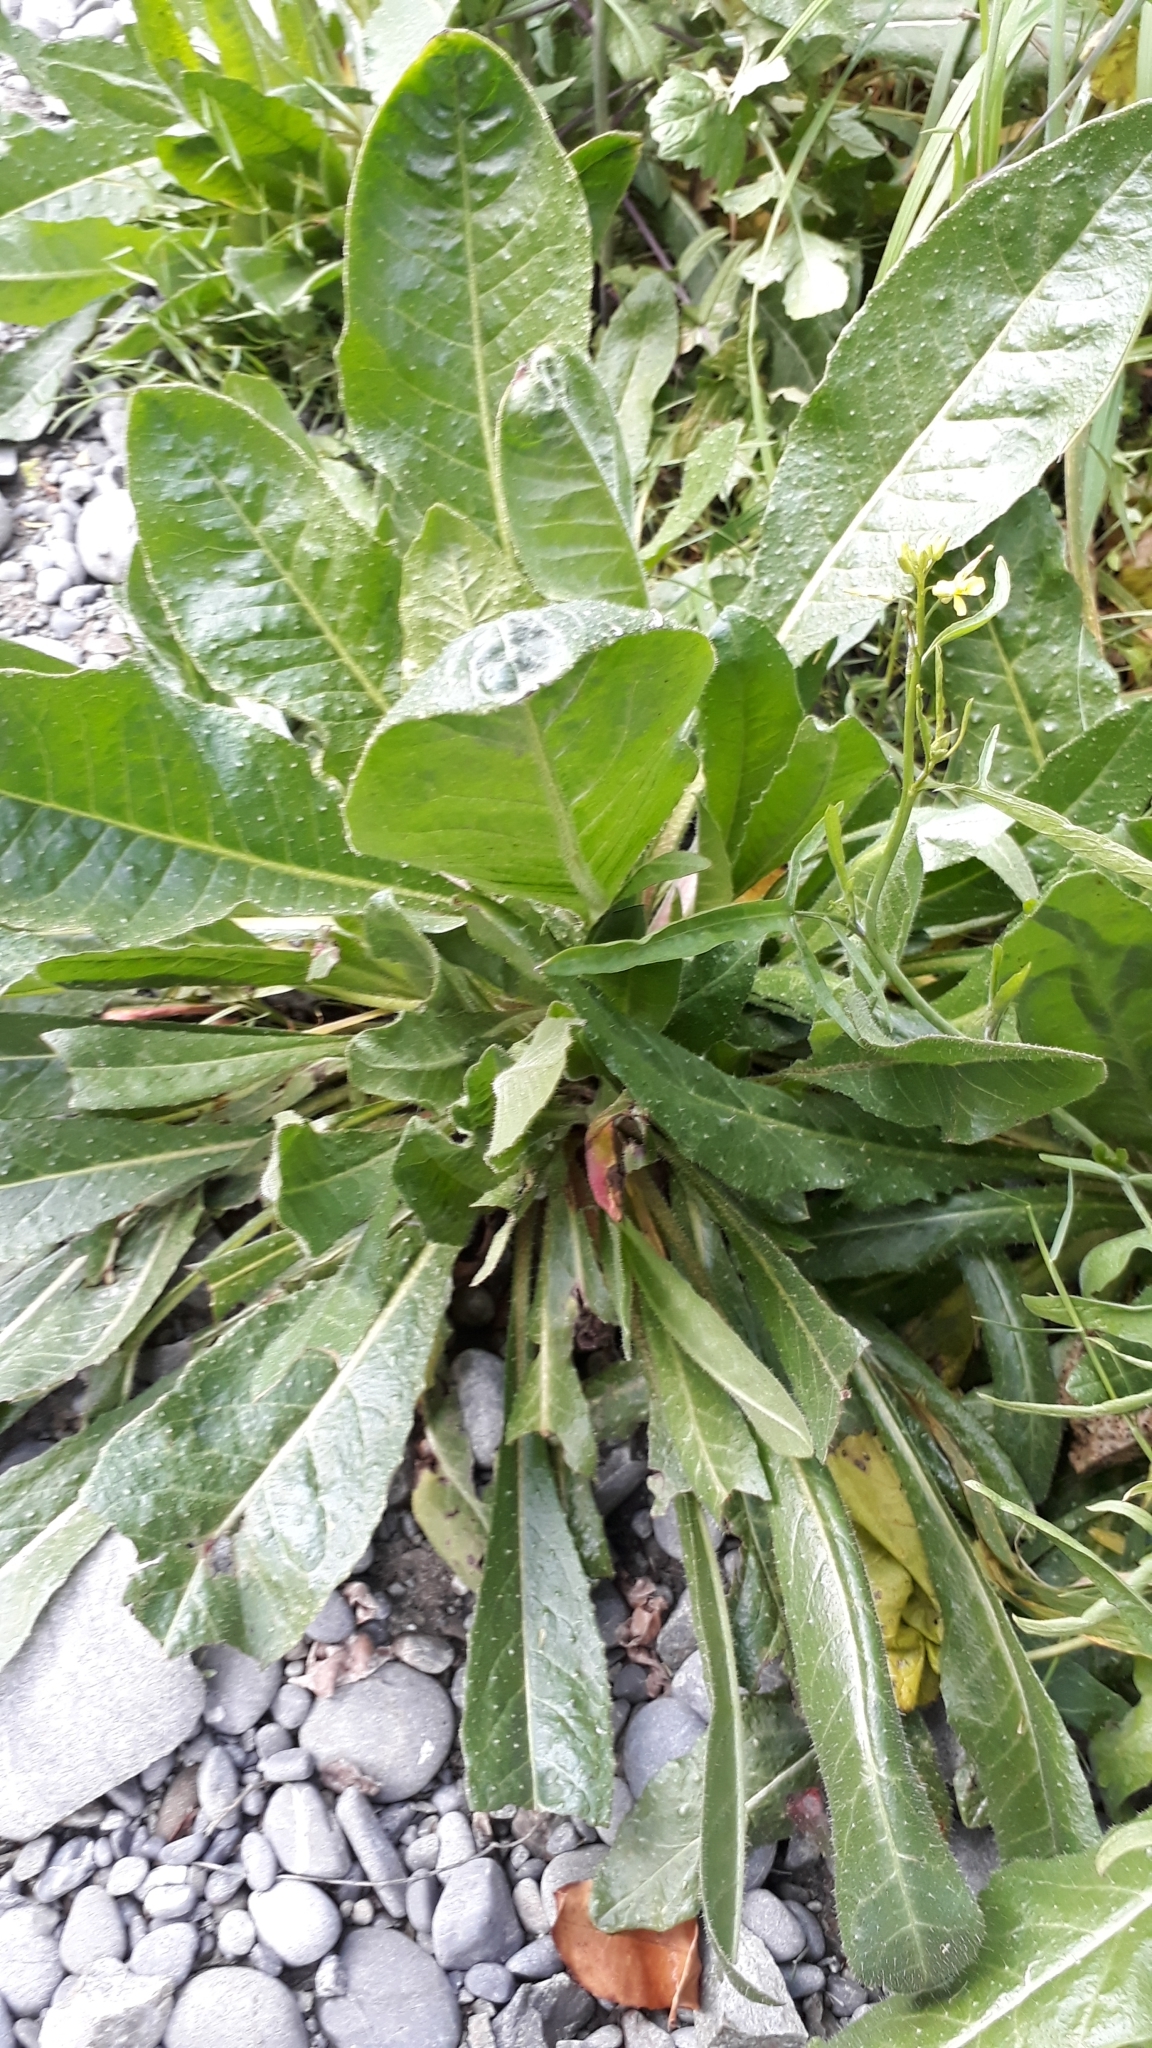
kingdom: Plantae
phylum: Tracheophyta
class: Magnoliopsida
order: Asterales
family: Asteraceae
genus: Helminthotheca
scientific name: Helminthotheca echioides
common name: Ox-tongue
